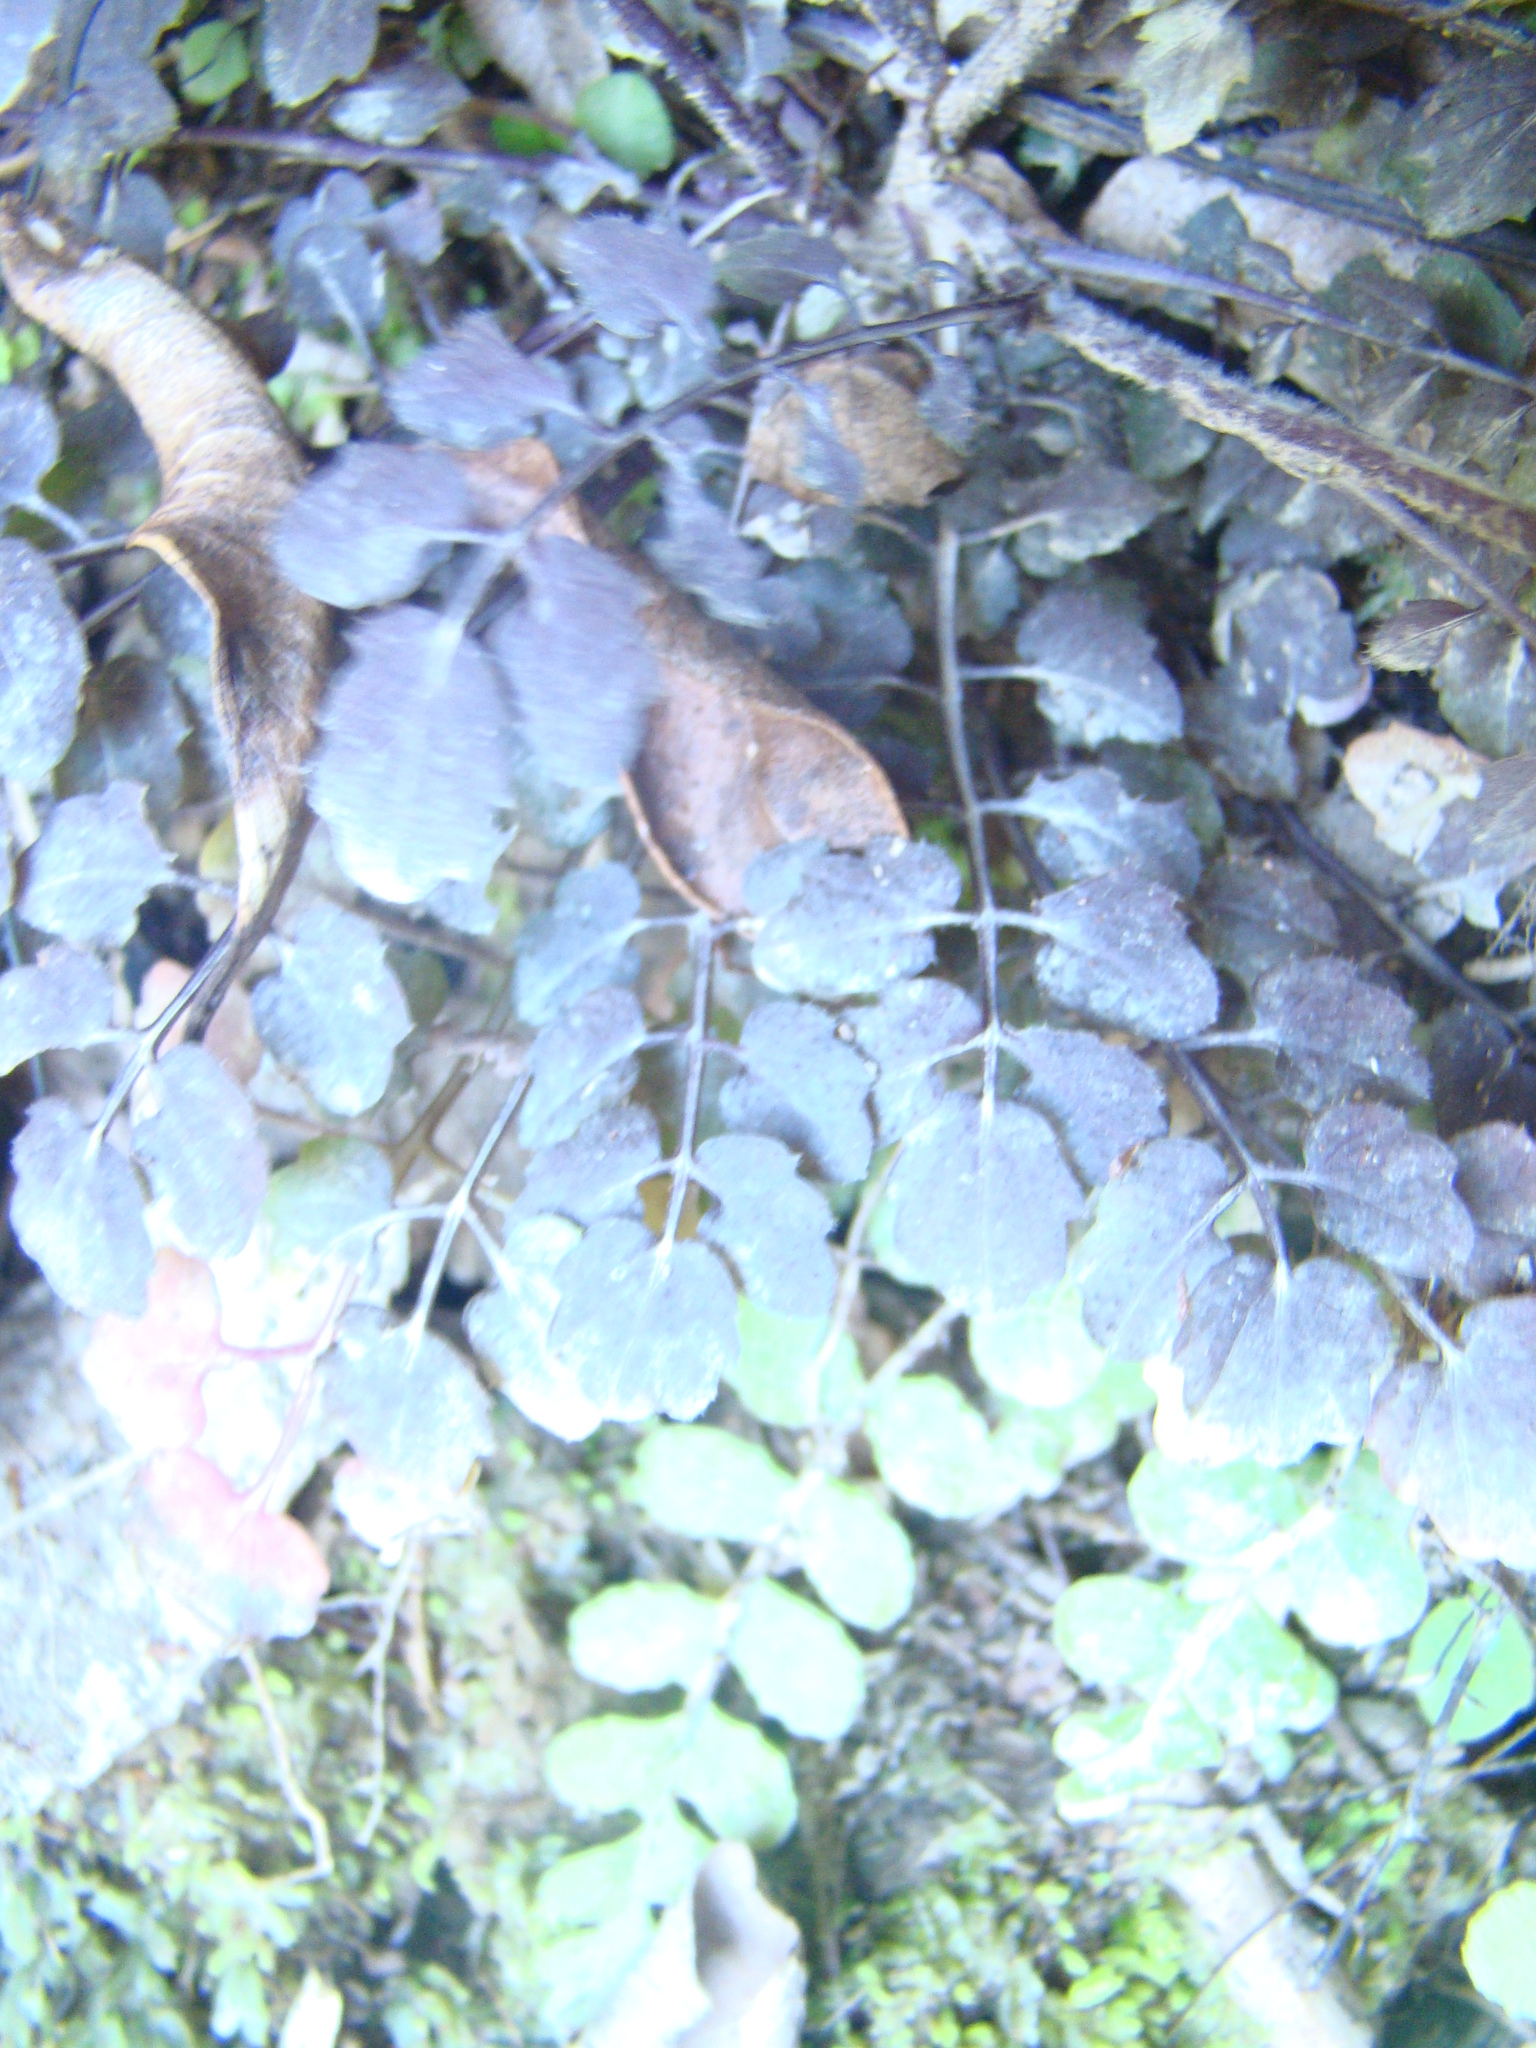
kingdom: Plantae
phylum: Tracheophyta
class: Magnoliopsida
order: Brassicales
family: Brassicaceae
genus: Cardamine
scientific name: Cardamine hirsuta
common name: Hairy bittercress
